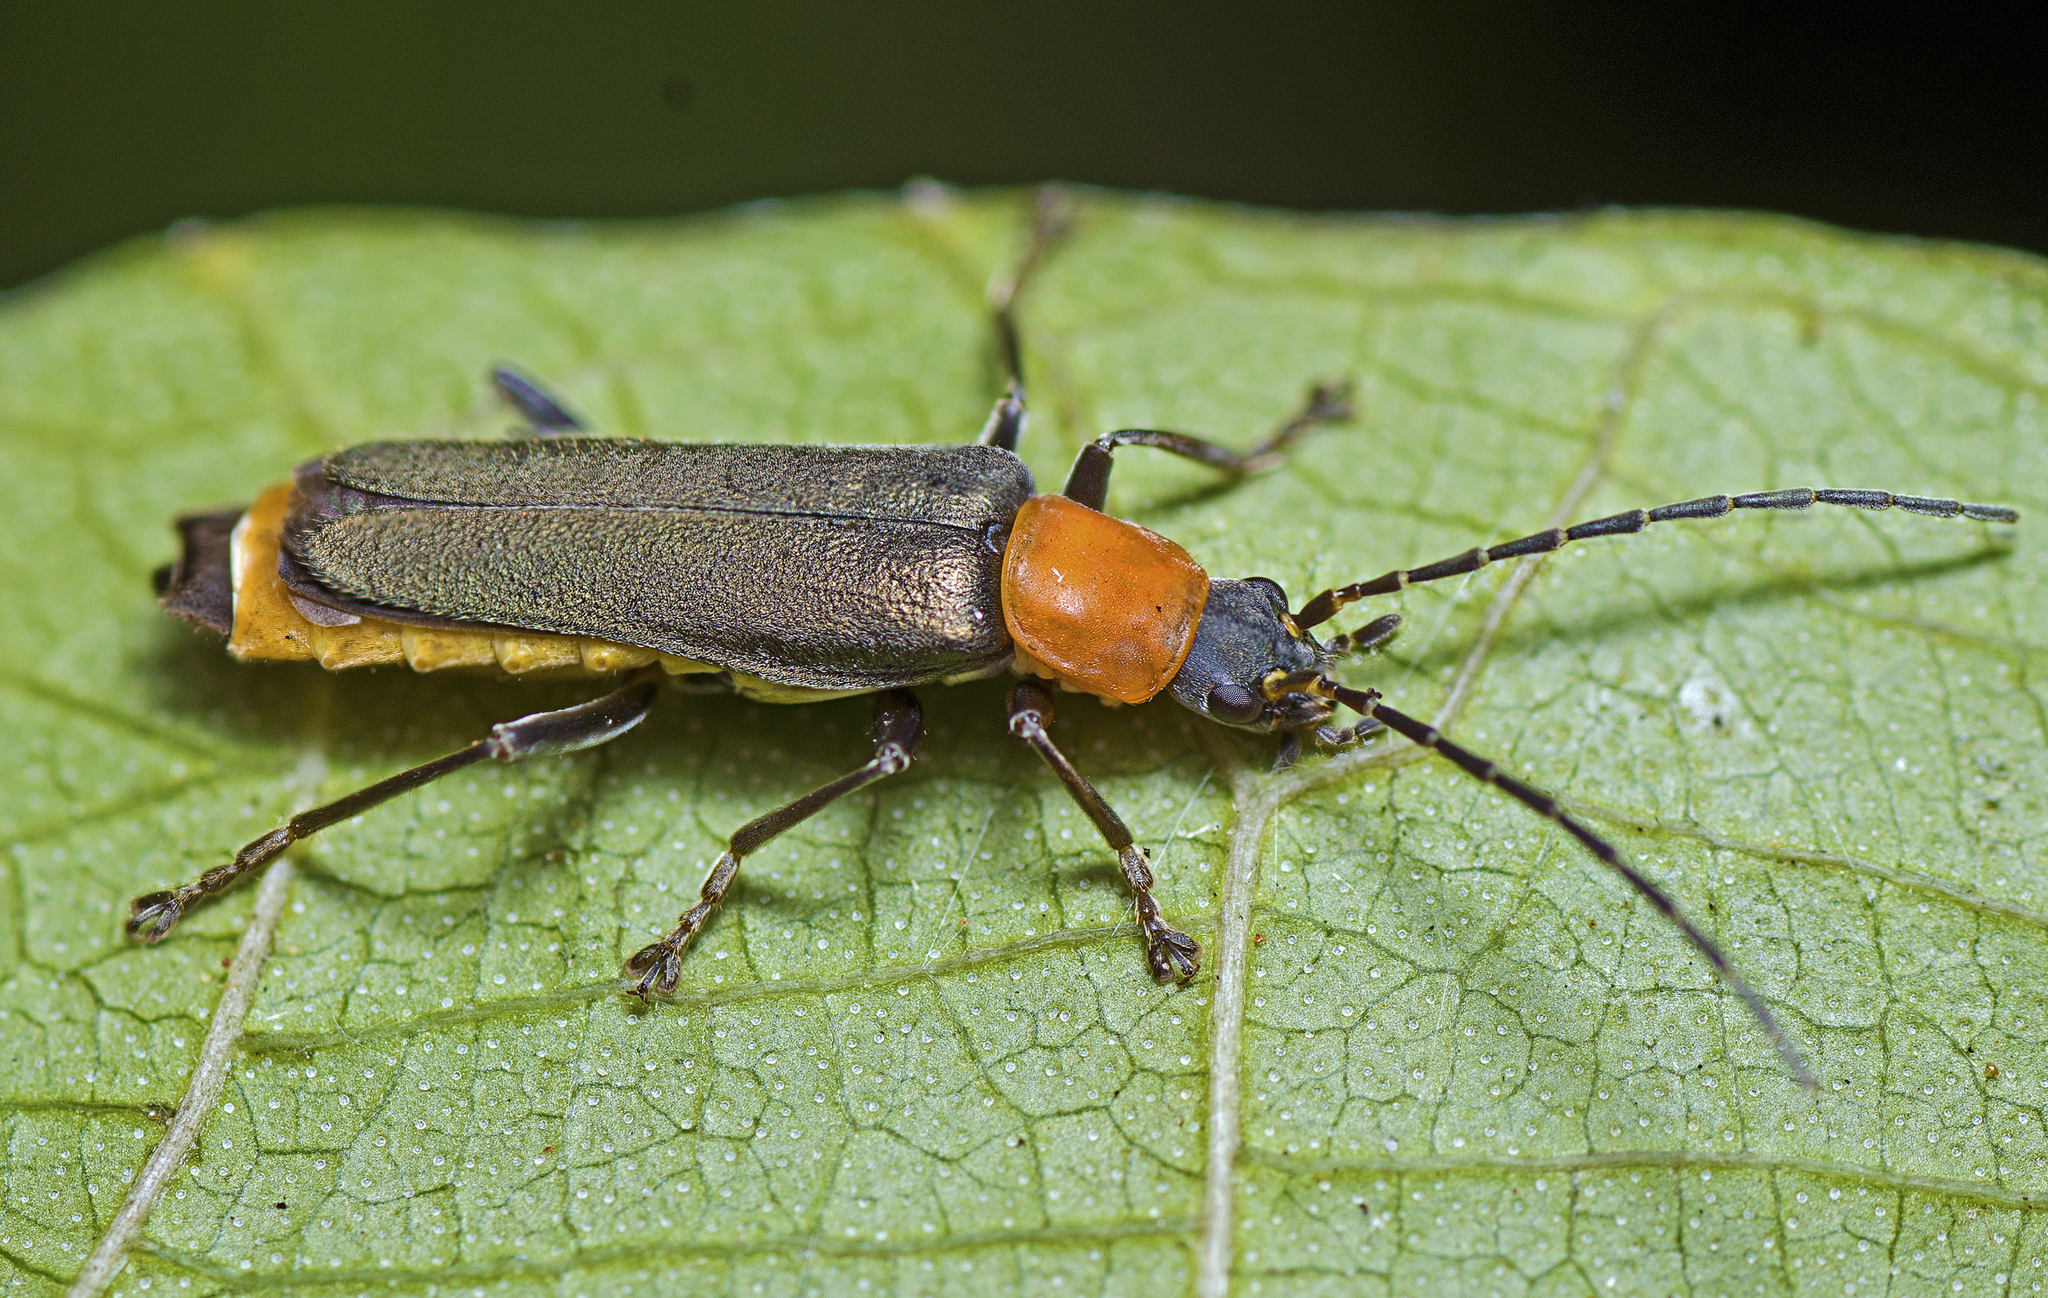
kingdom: Animalia
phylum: Arthropoda
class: Insecta
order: Coleoptera
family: Cantharidae
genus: Chauliognathus
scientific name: Chauliognathus
